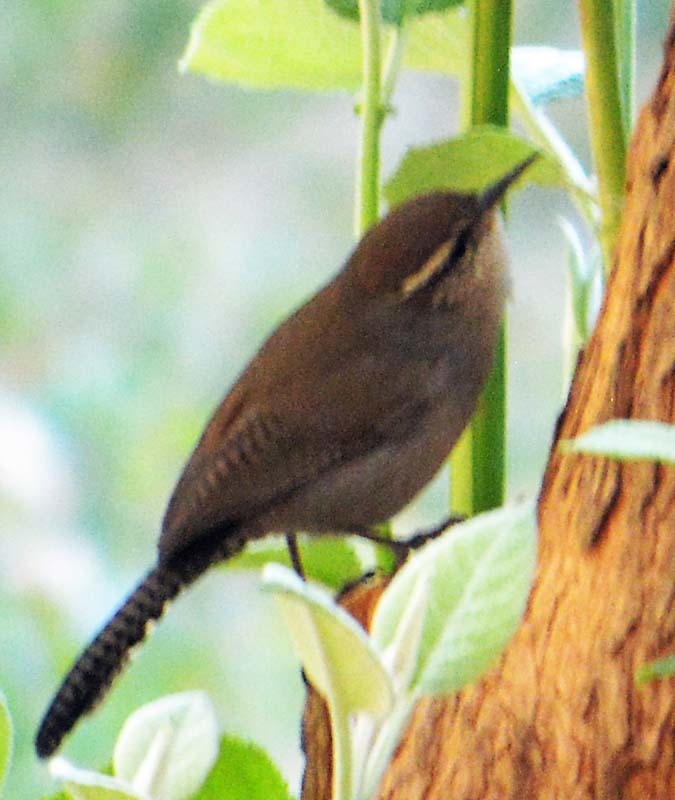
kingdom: Animalia
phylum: Chordata
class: Aves
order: Passeriformes
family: Troglodytidae
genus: Thryomanes
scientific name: Thryomanes bewickii
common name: Bewick's wren
